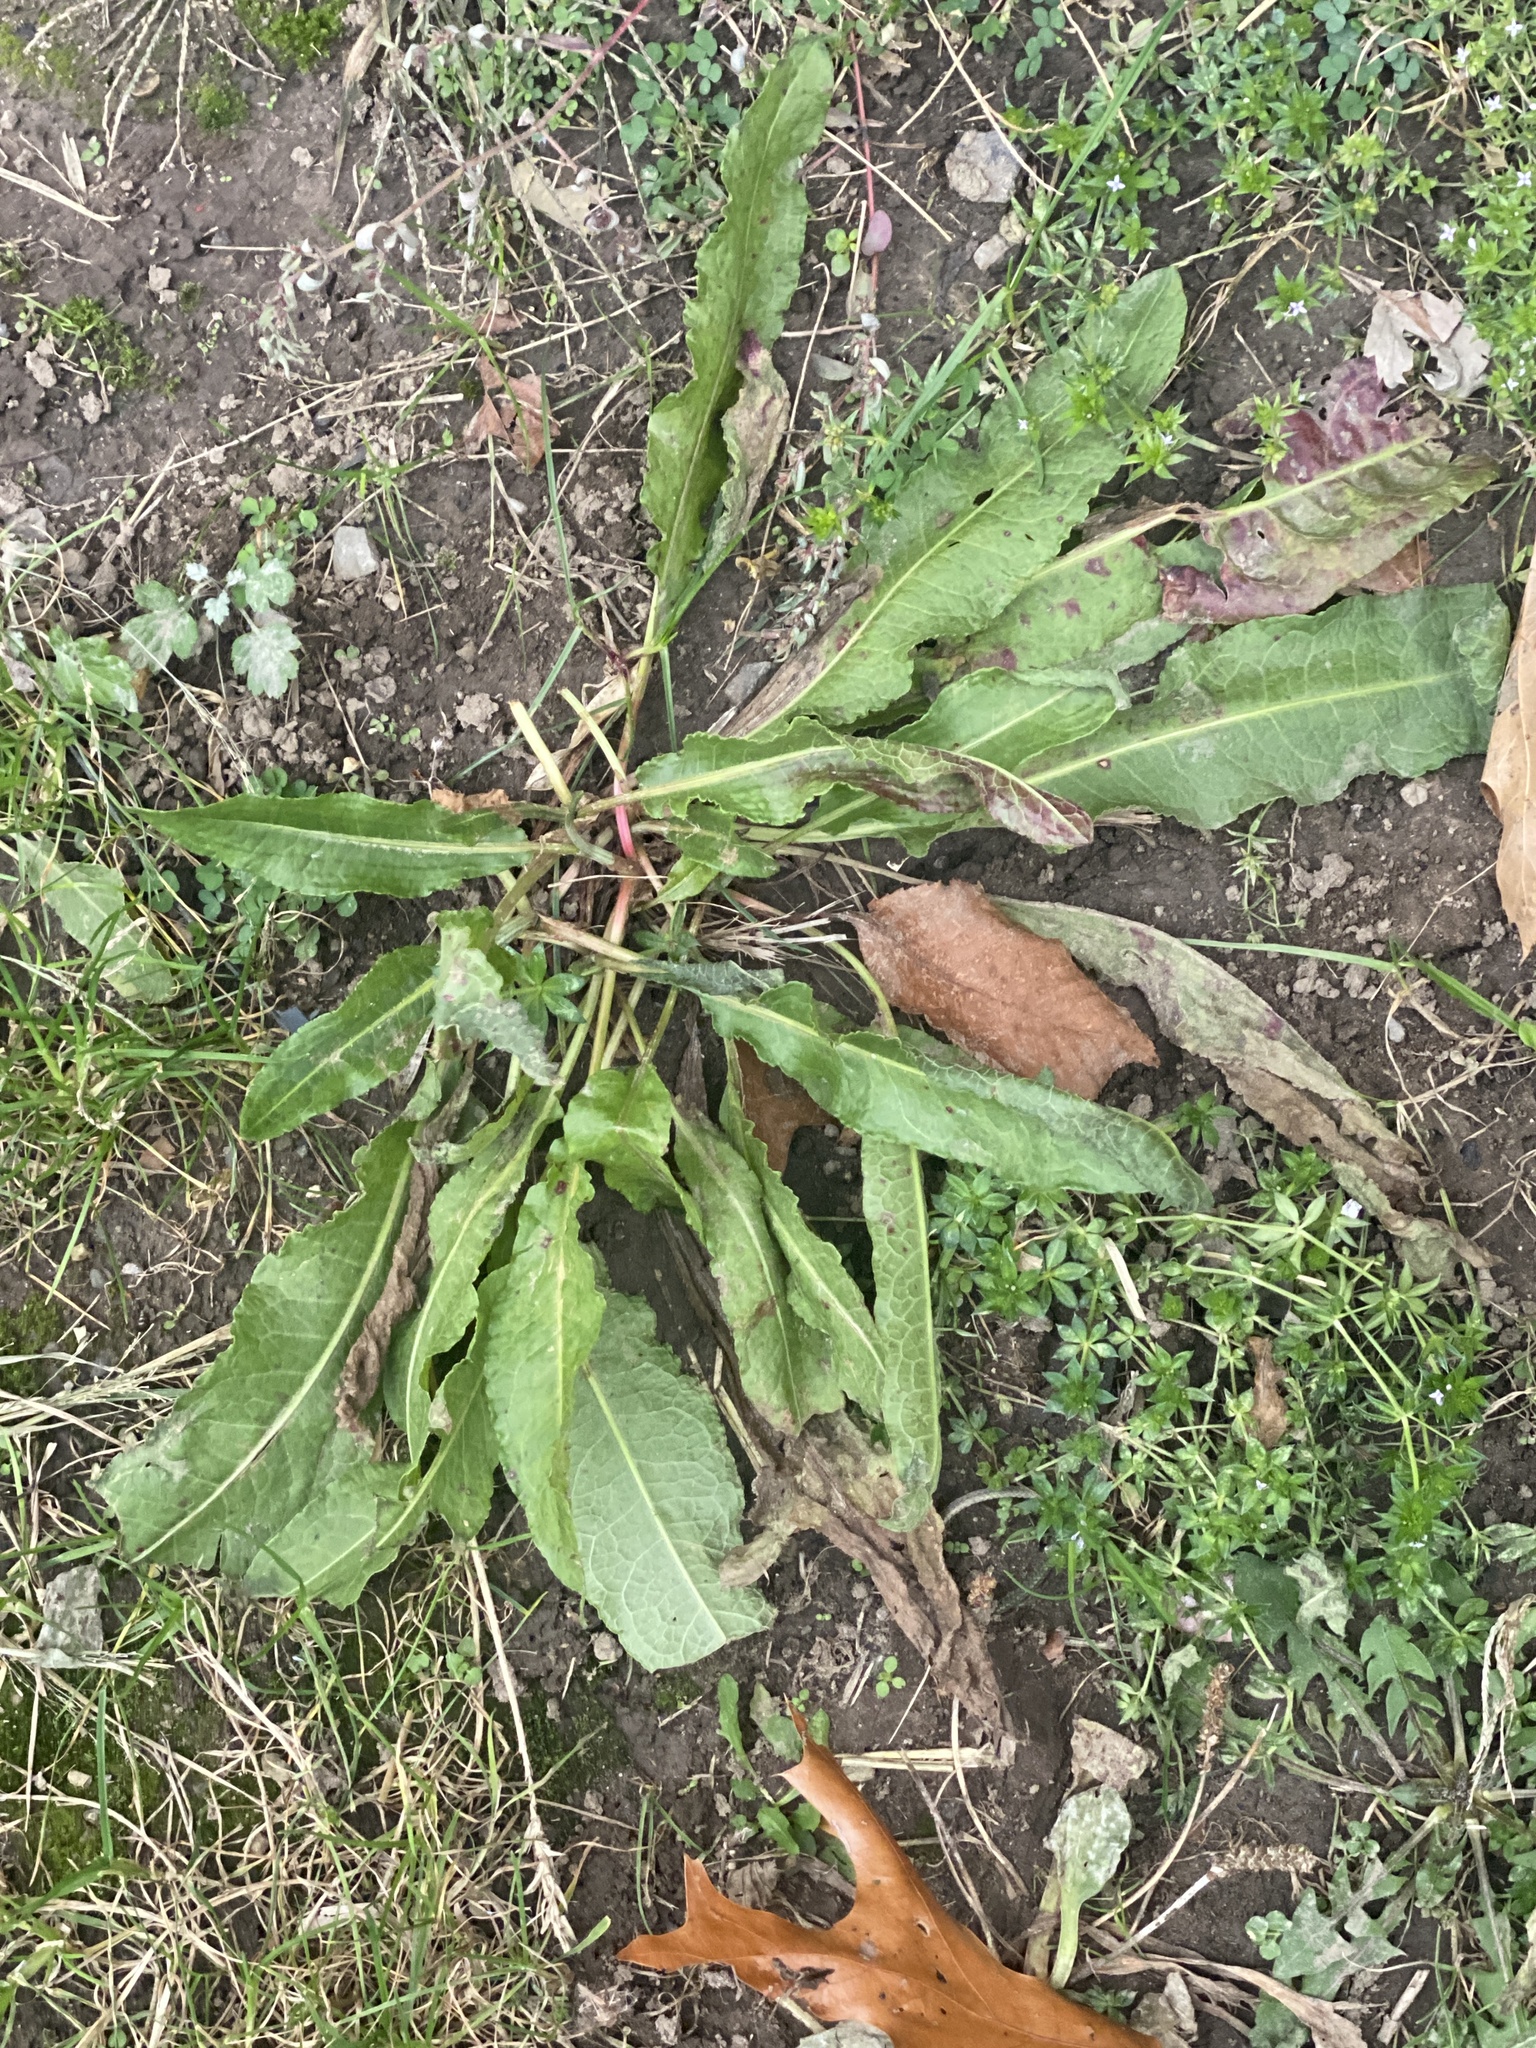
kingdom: Plantae
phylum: Tracheophyta
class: Magnoliopsida
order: Caryophyllales
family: Polygonaceae
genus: Rumex
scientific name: Rumex crispus
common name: Curled dock
